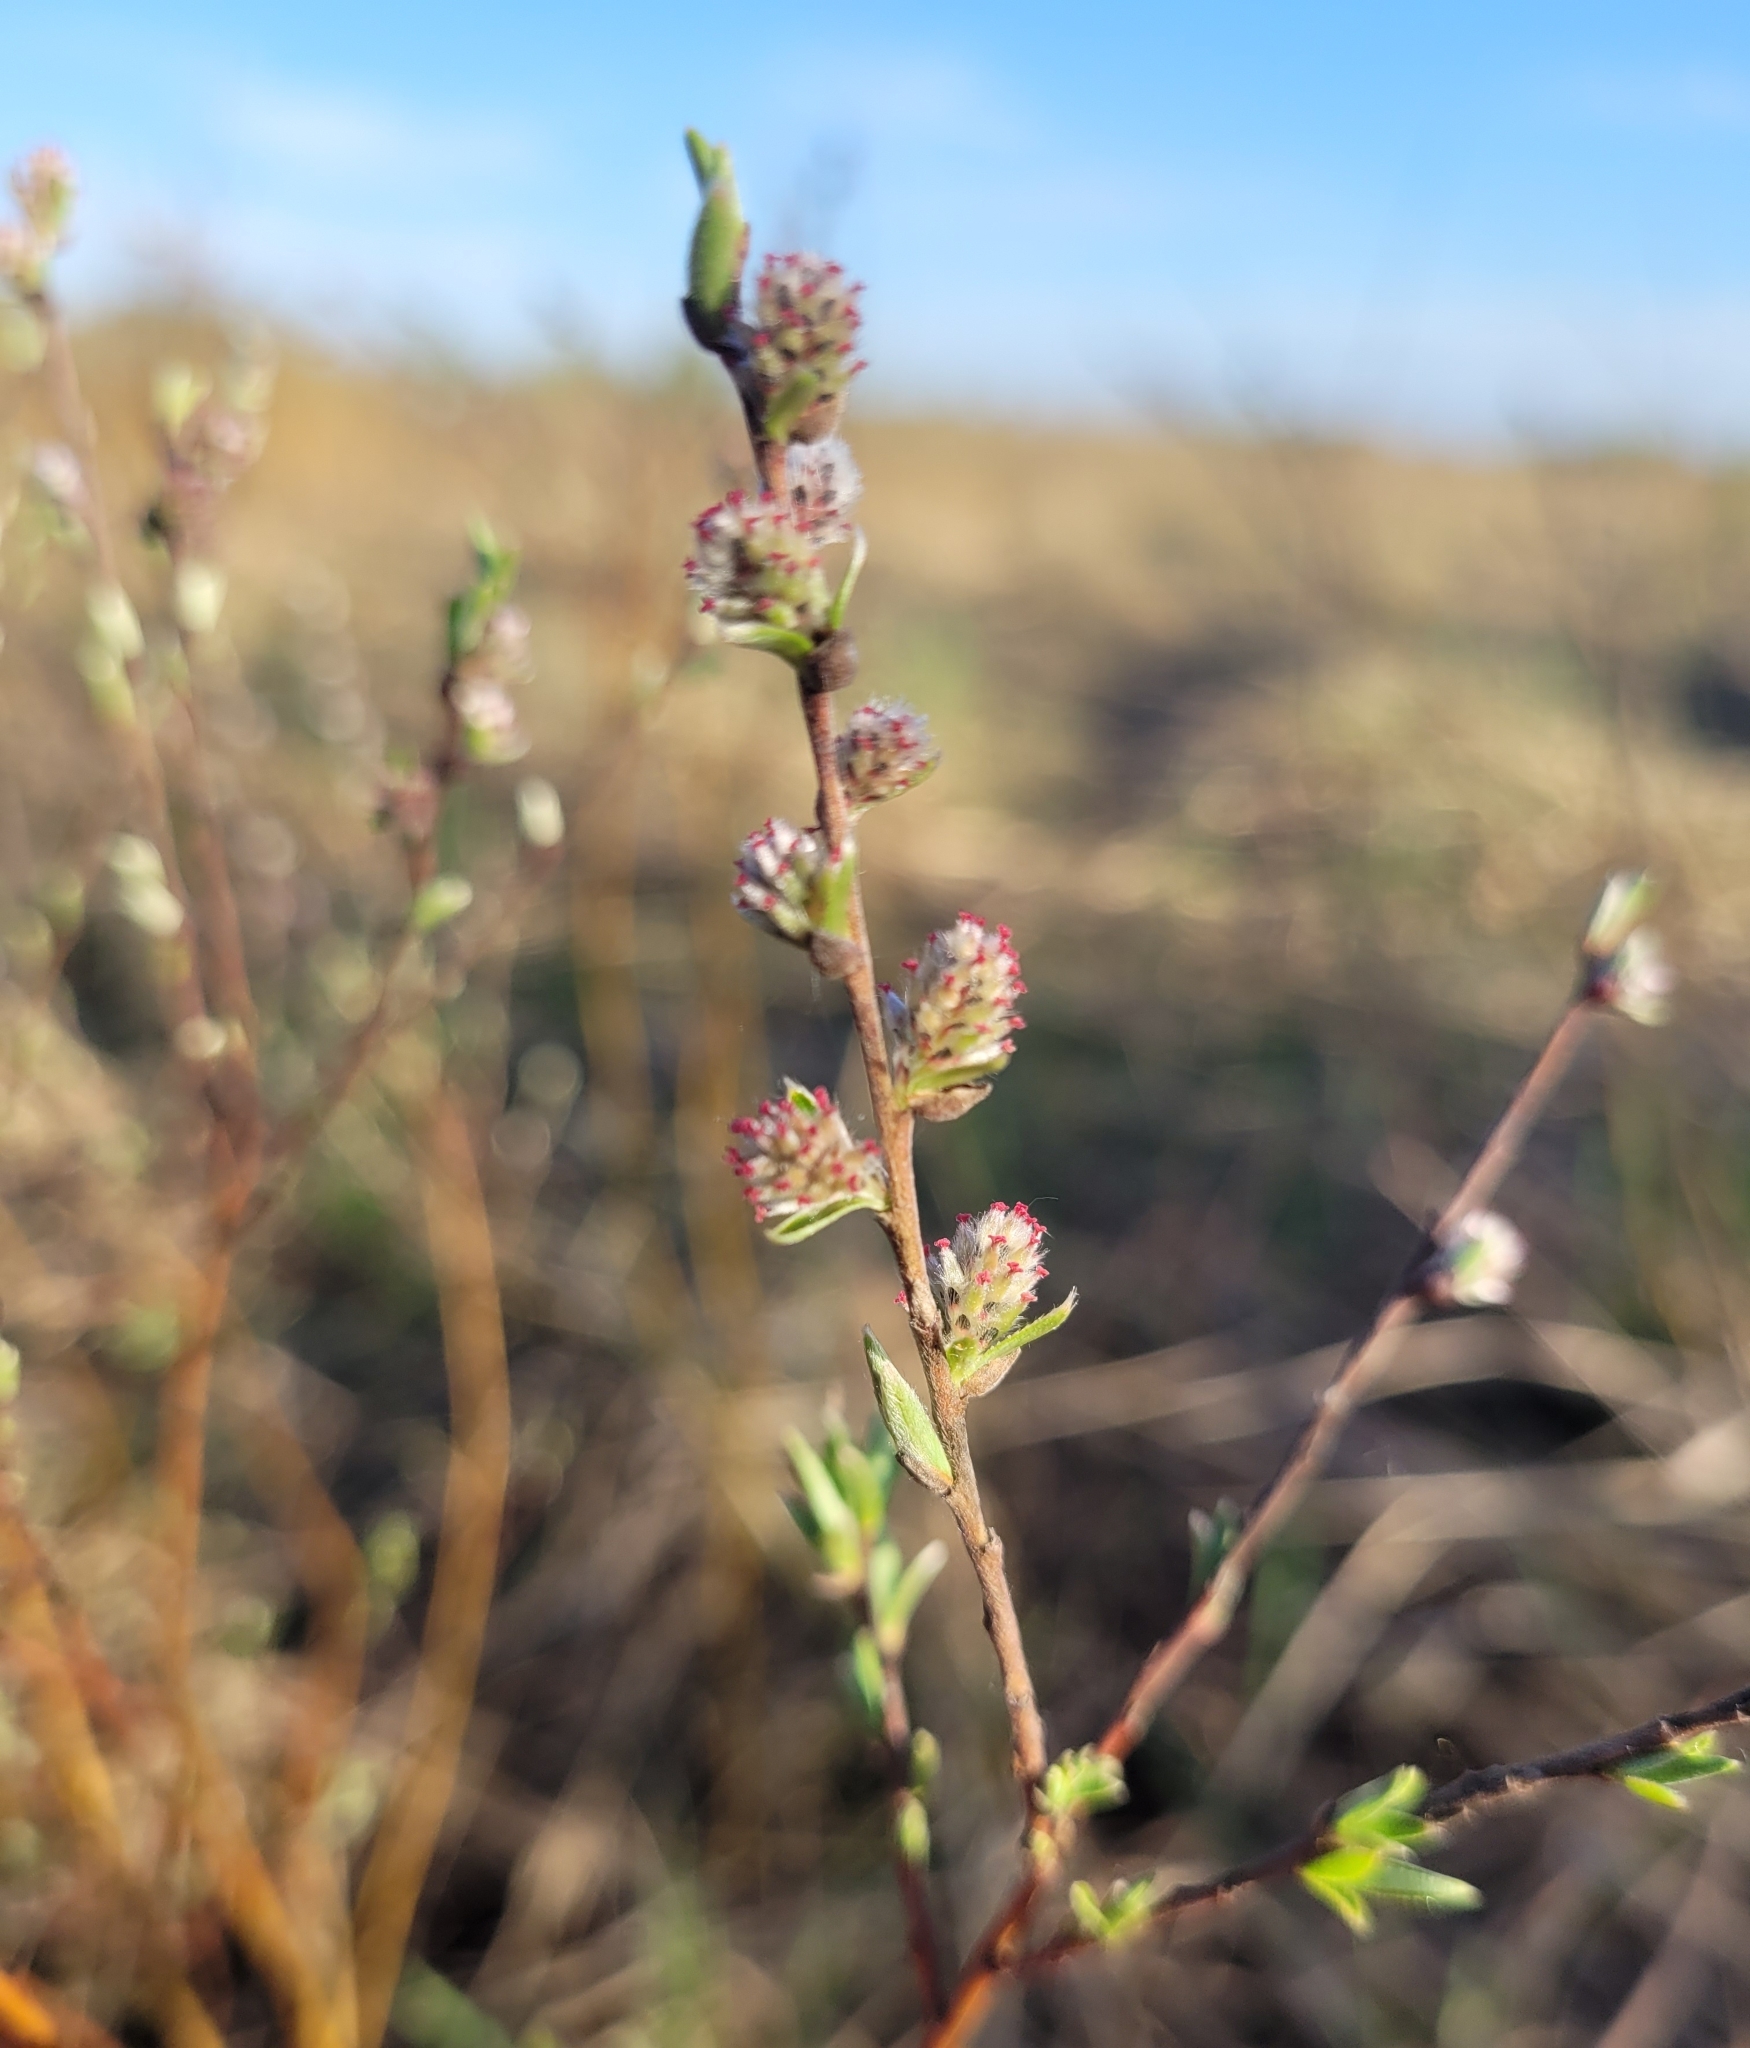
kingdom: Plantae
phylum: Tracheophyta
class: Magnoliopsida
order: Malpighiales
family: Salicaceae
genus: Salix
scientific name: Salix rosmarinifolia
